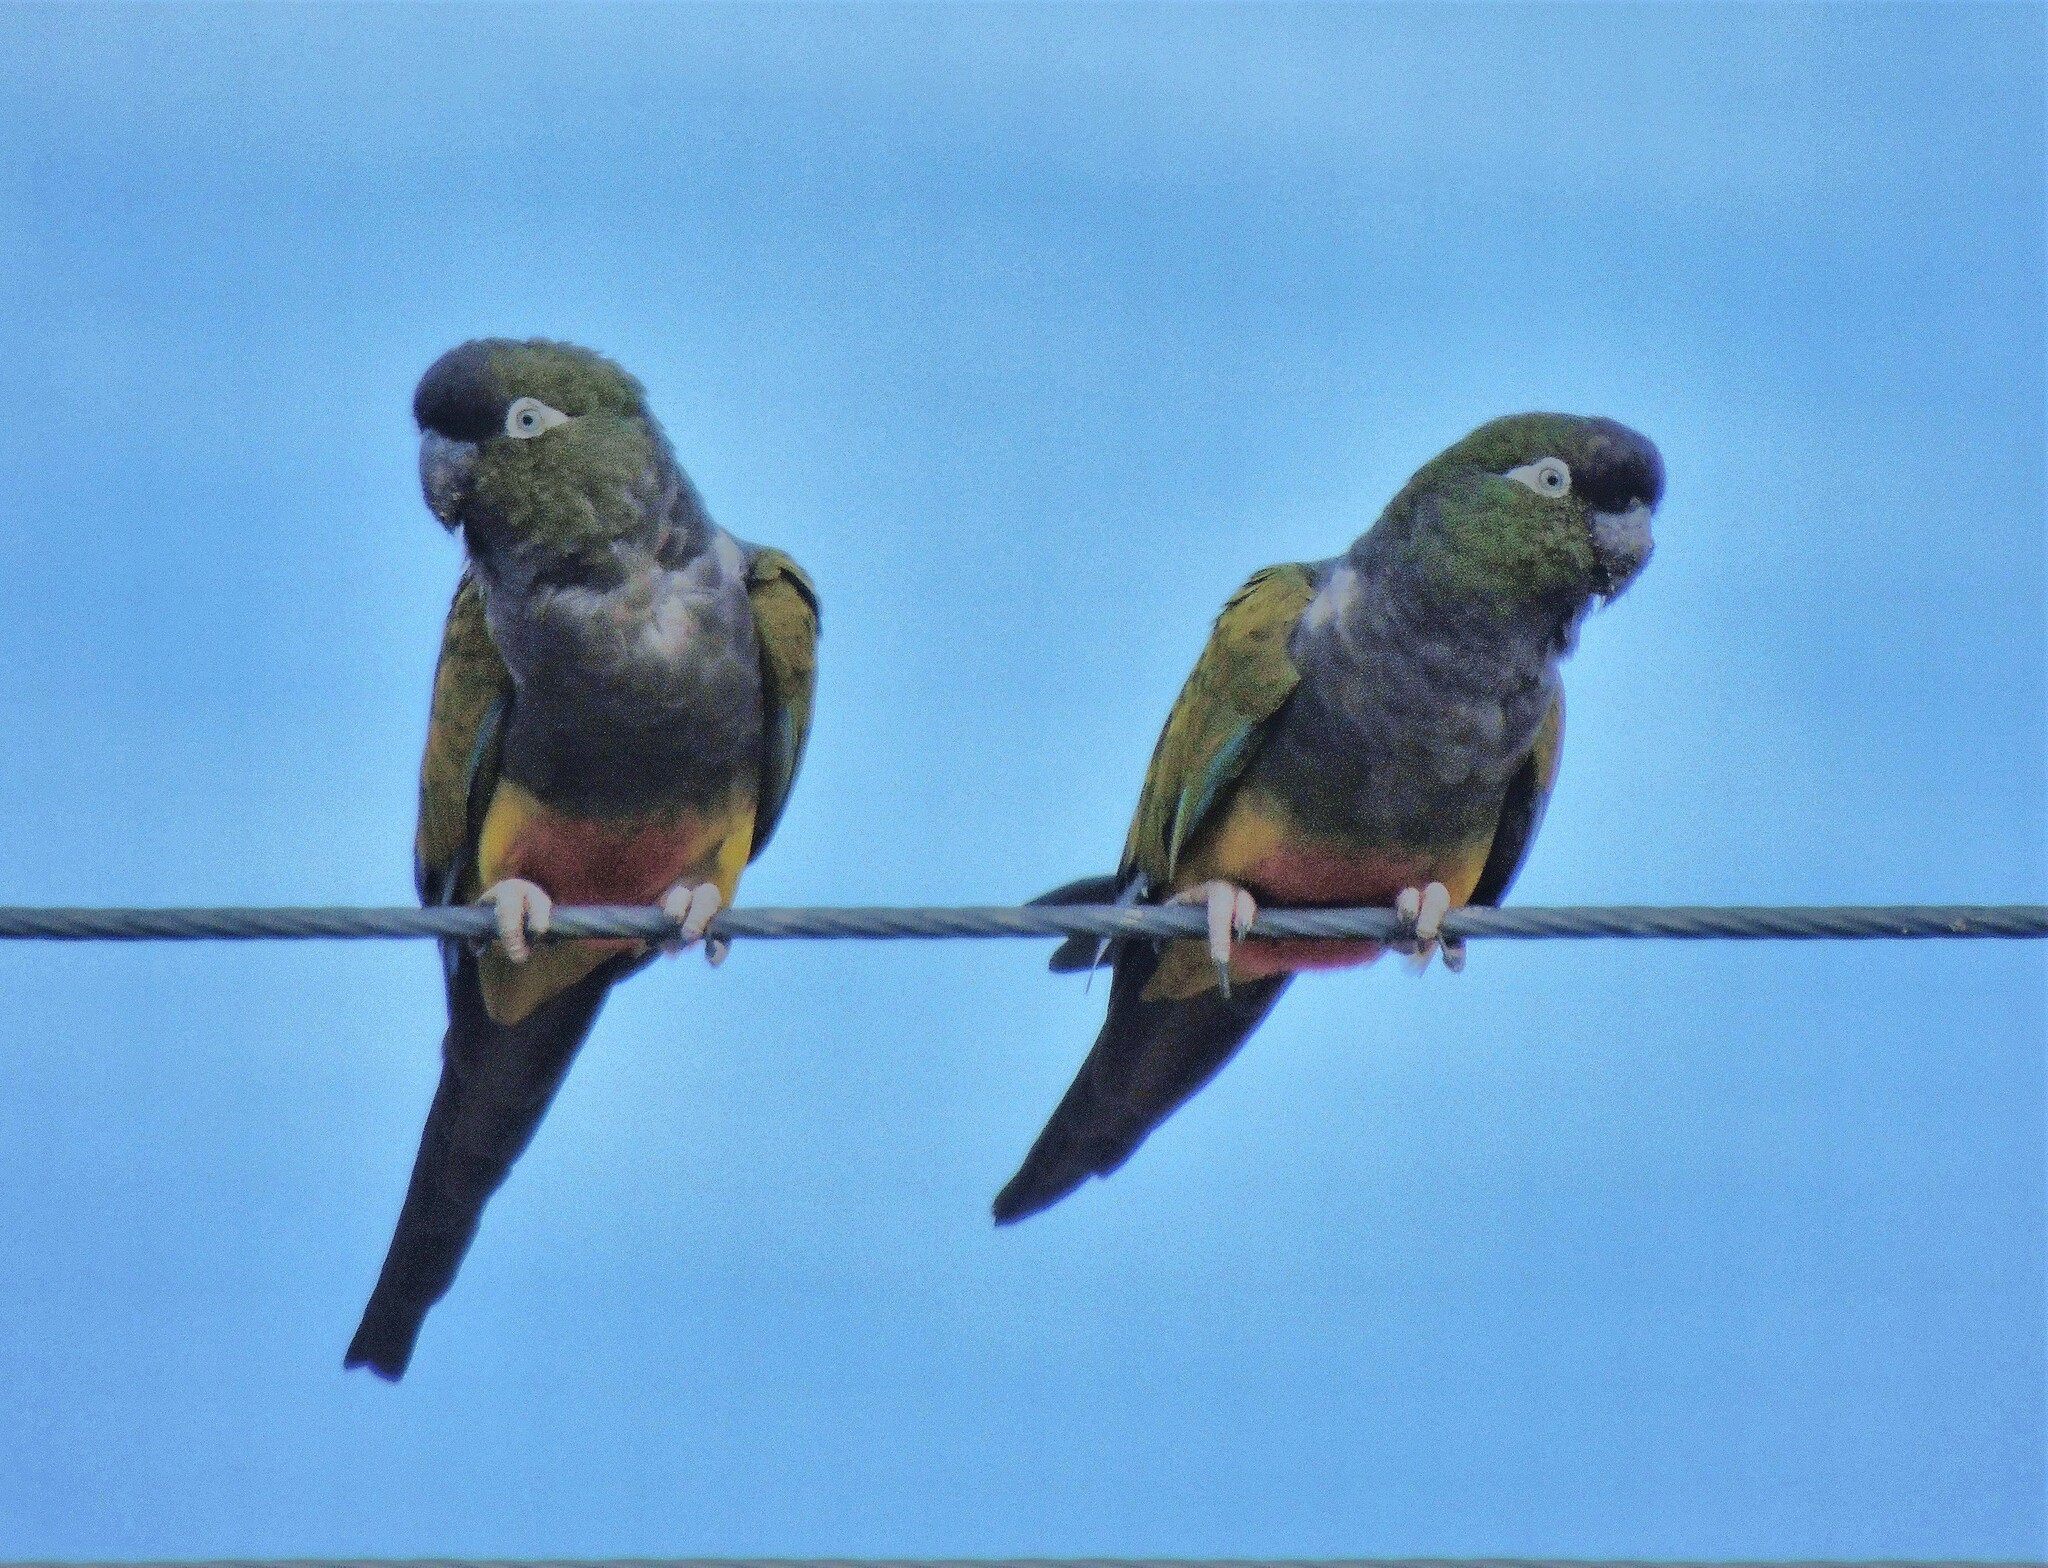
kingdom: Animalia
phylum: Chordata
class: Aves
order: Psittaciformes
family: Psittacidae
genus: Cyanoliseus
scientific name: Cyanoliseus patagonus
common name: Burrowing parrot
